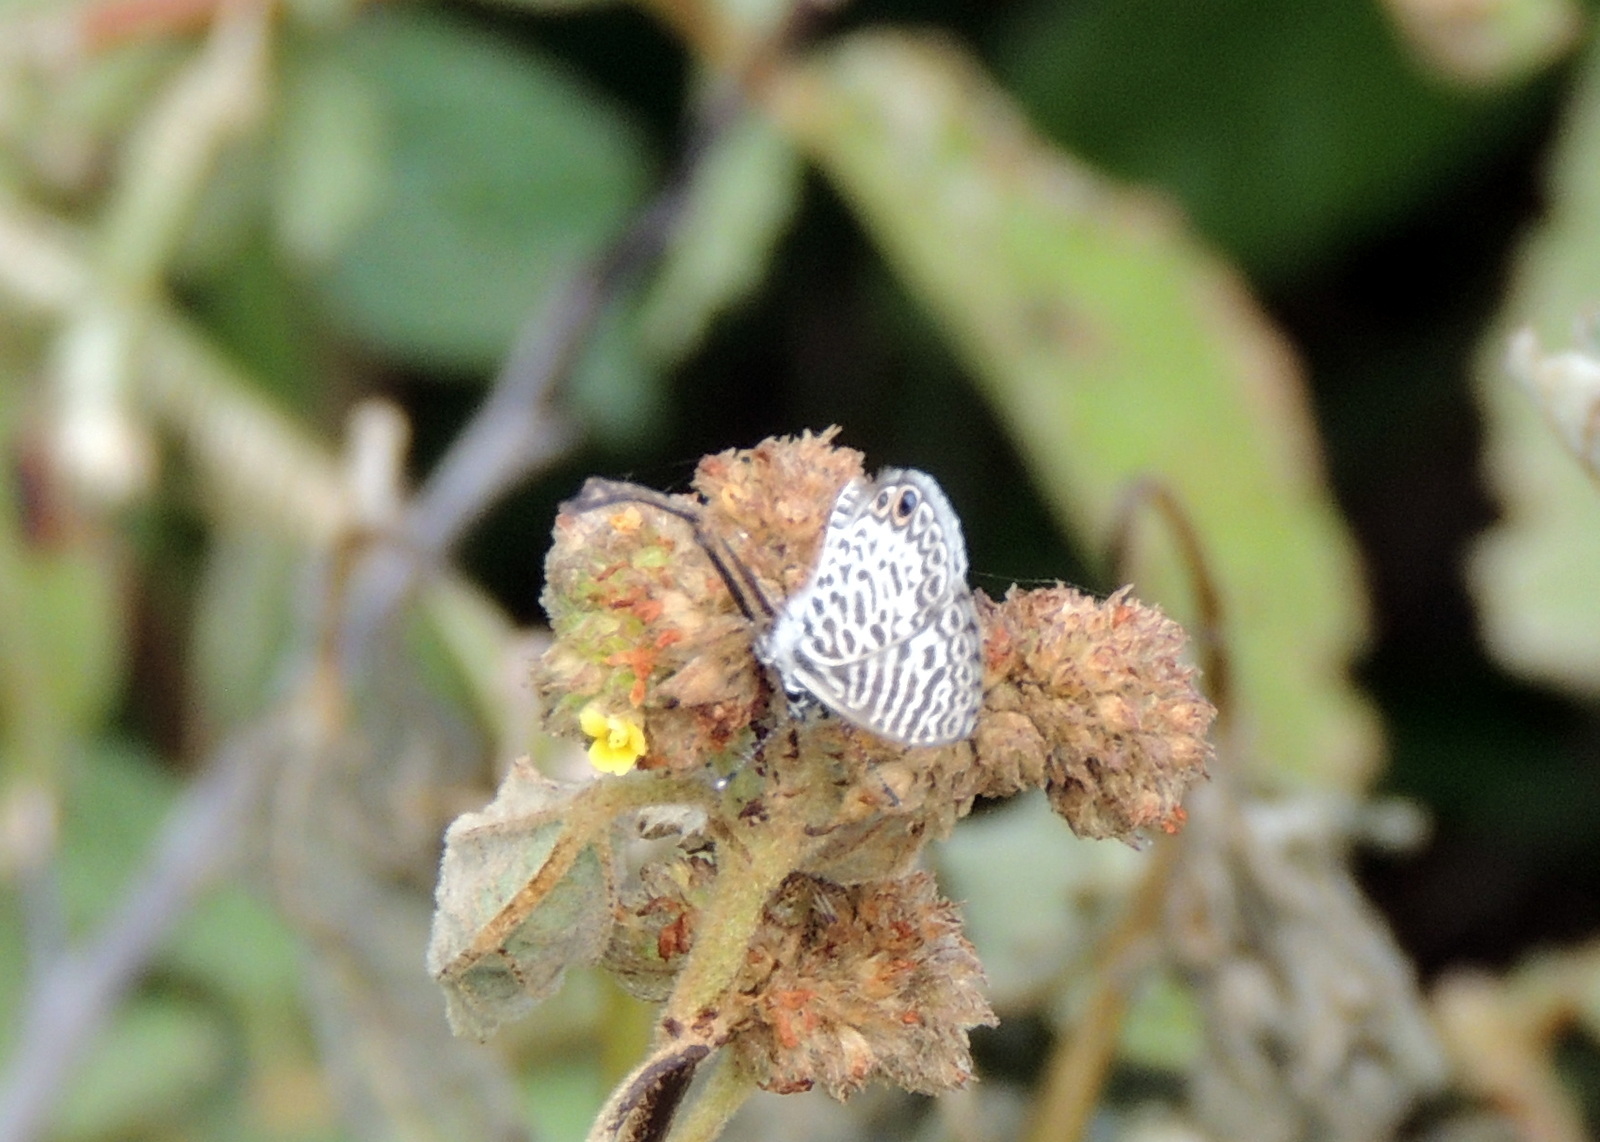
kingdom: Animalia
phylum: Arthropoda
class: Insecta
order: Lepidoptera
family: Lycaenidae
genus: Leptotes
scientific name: Leptotes cassius
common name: Cassius blue
